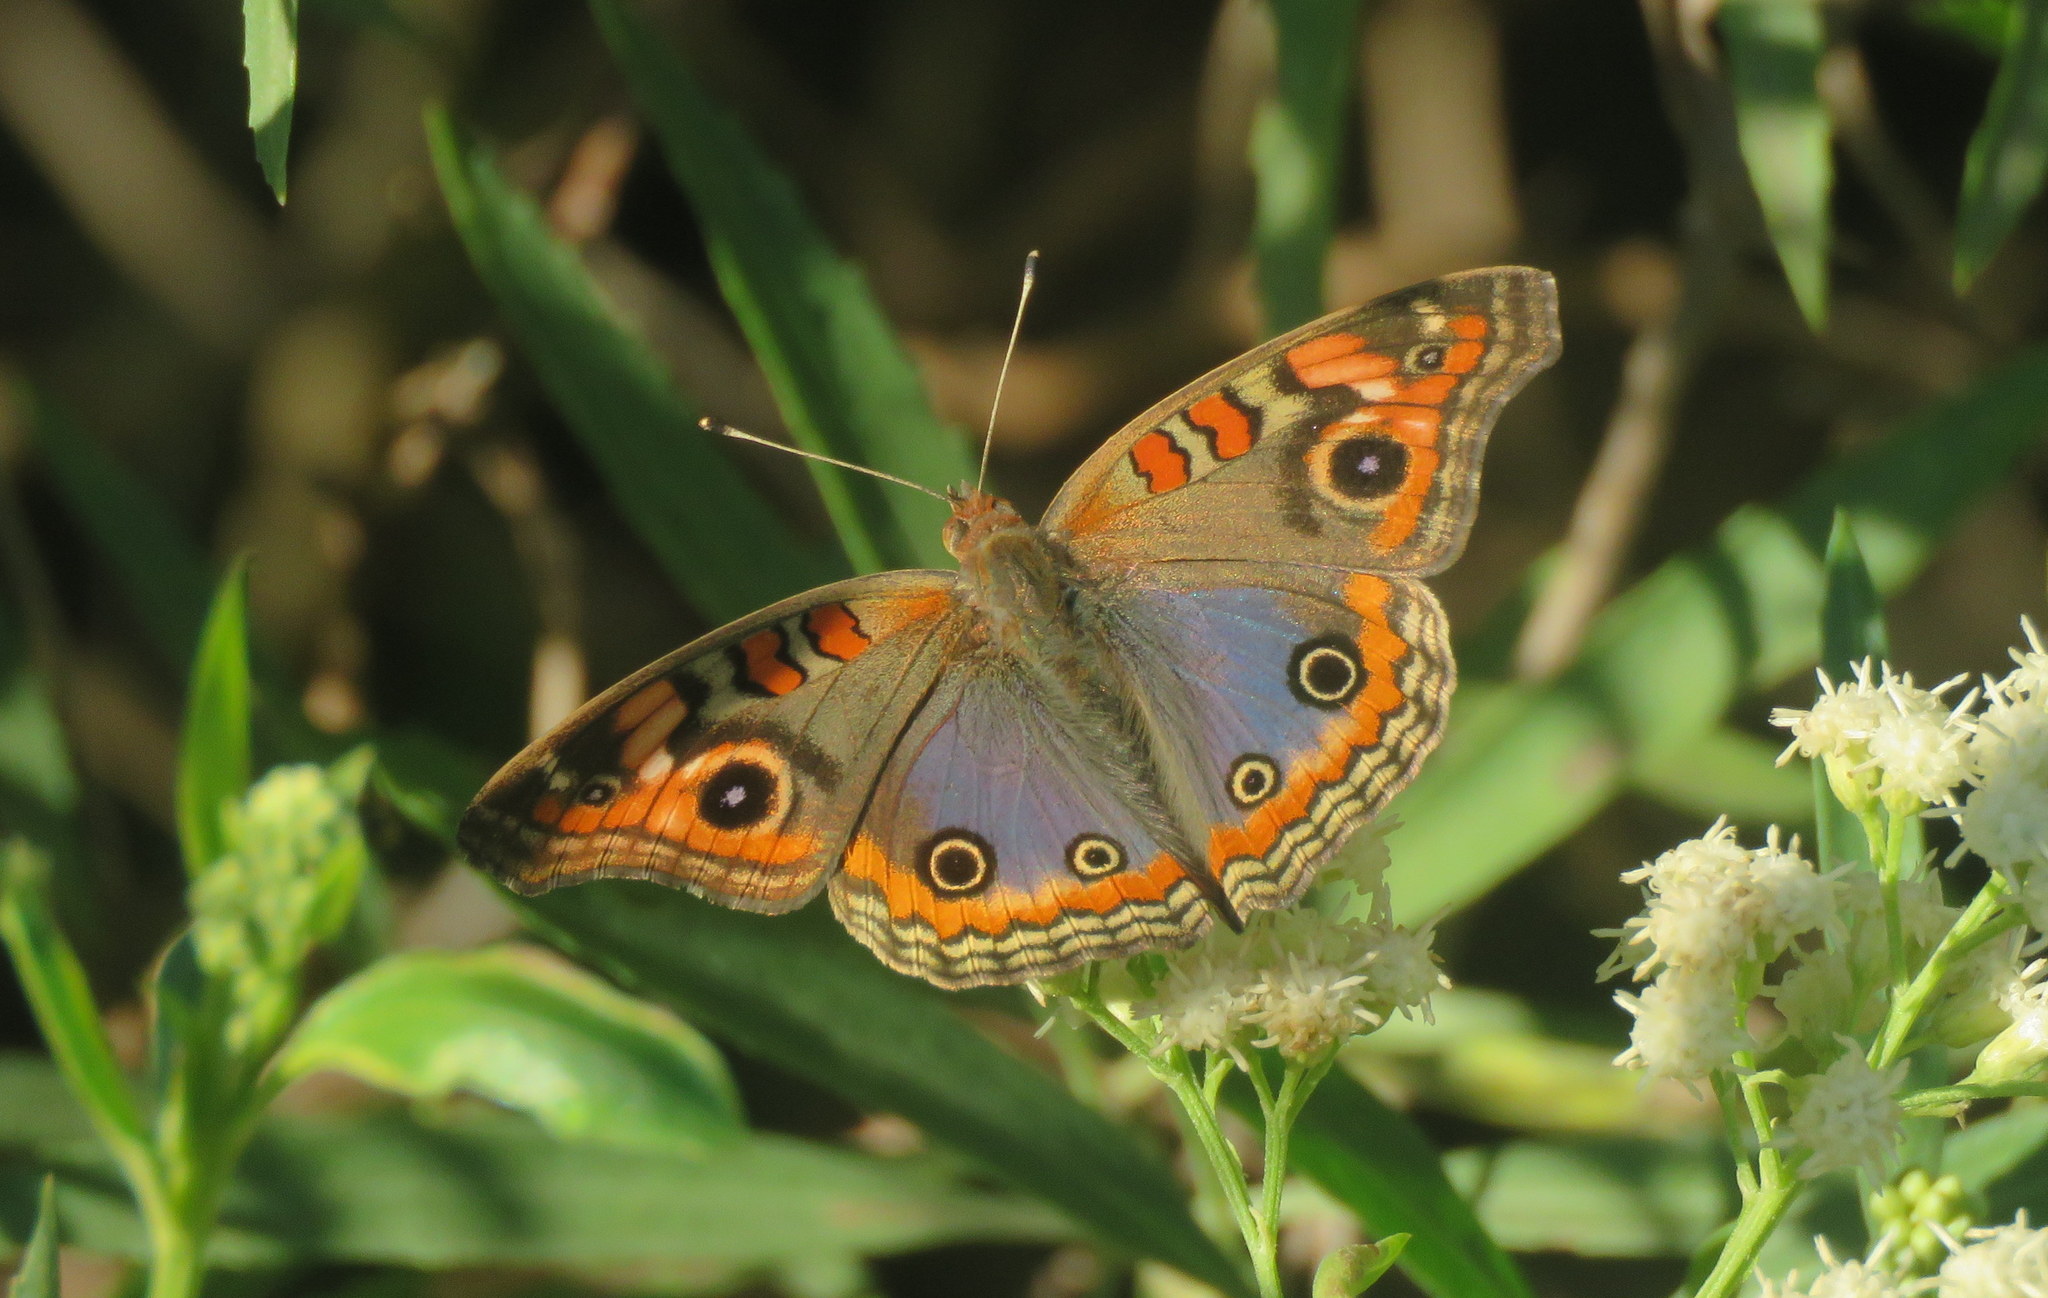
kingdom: Animalia
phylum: Arthropoda
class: Insecta
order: Lepidoptera
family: Nymphalidae
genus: Junonia
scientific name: Junonia lavinia
